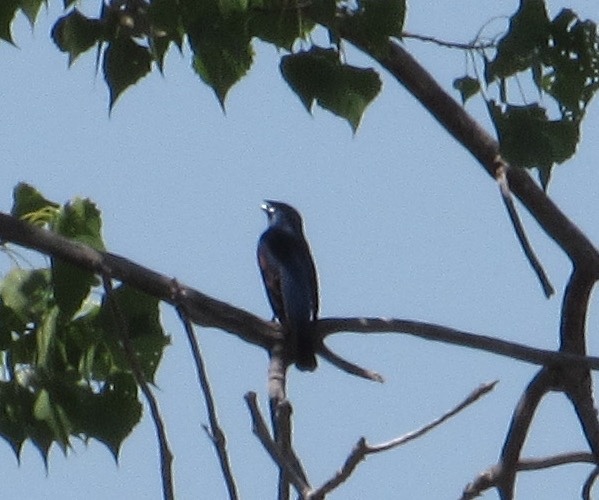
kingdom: Animalia
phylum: Chordata
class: Aves
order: Passeriformes
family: Cardinalidae
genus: Passerina
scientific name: Passerina caerulea
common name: Blue grosbeak
